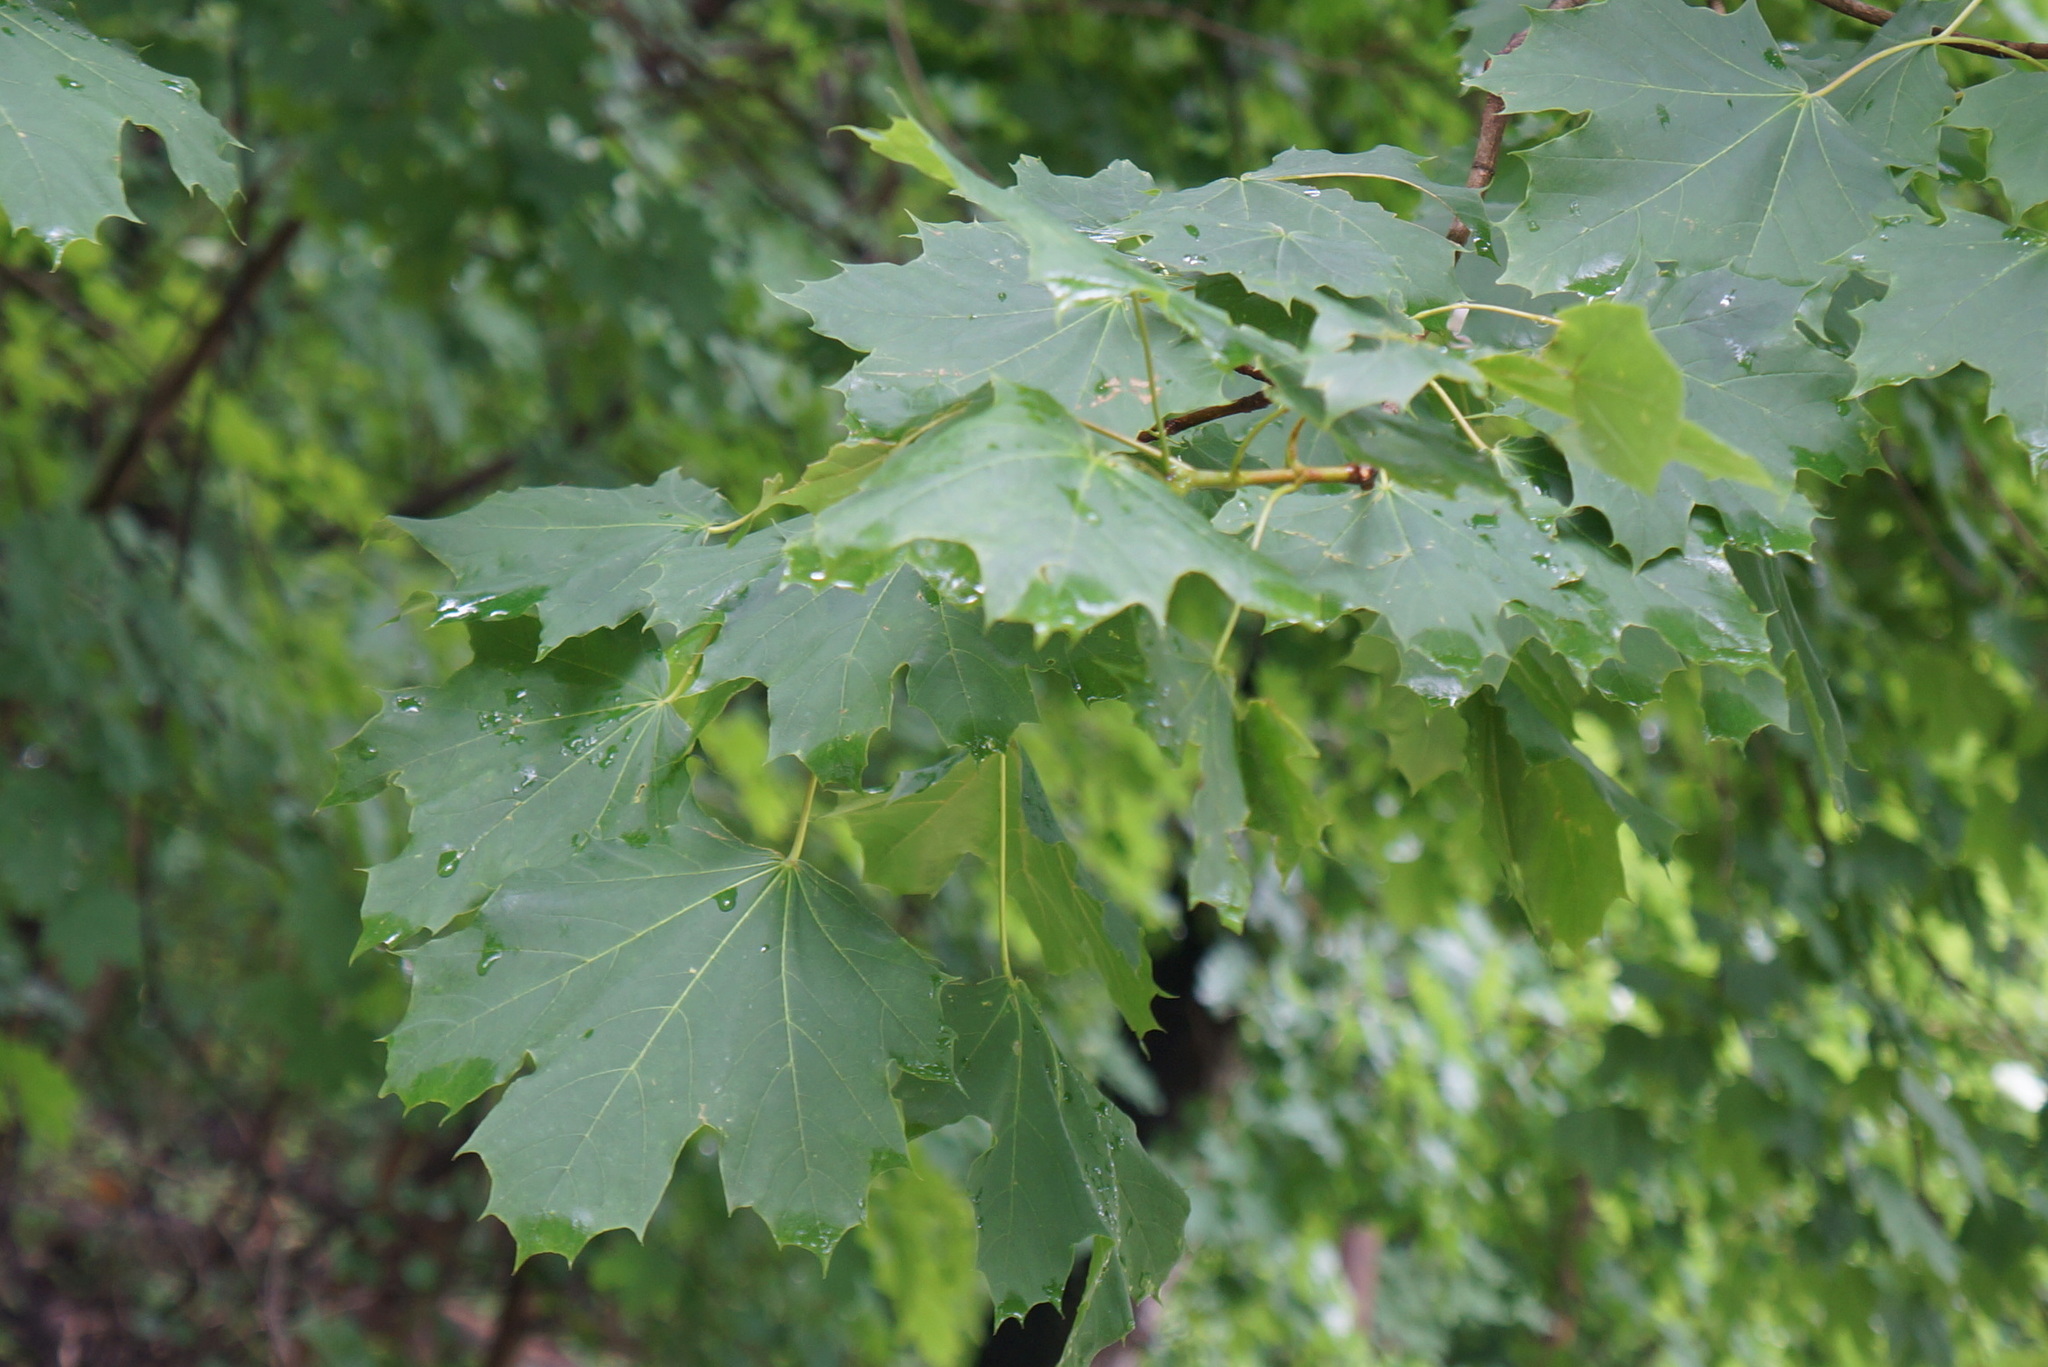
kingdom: Plantae
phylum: Tracheophyta
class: Magnoliopsida
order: Sapindales
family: Sapindaceae
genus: Acer
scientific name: Acer platanoides
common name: Norway maple
